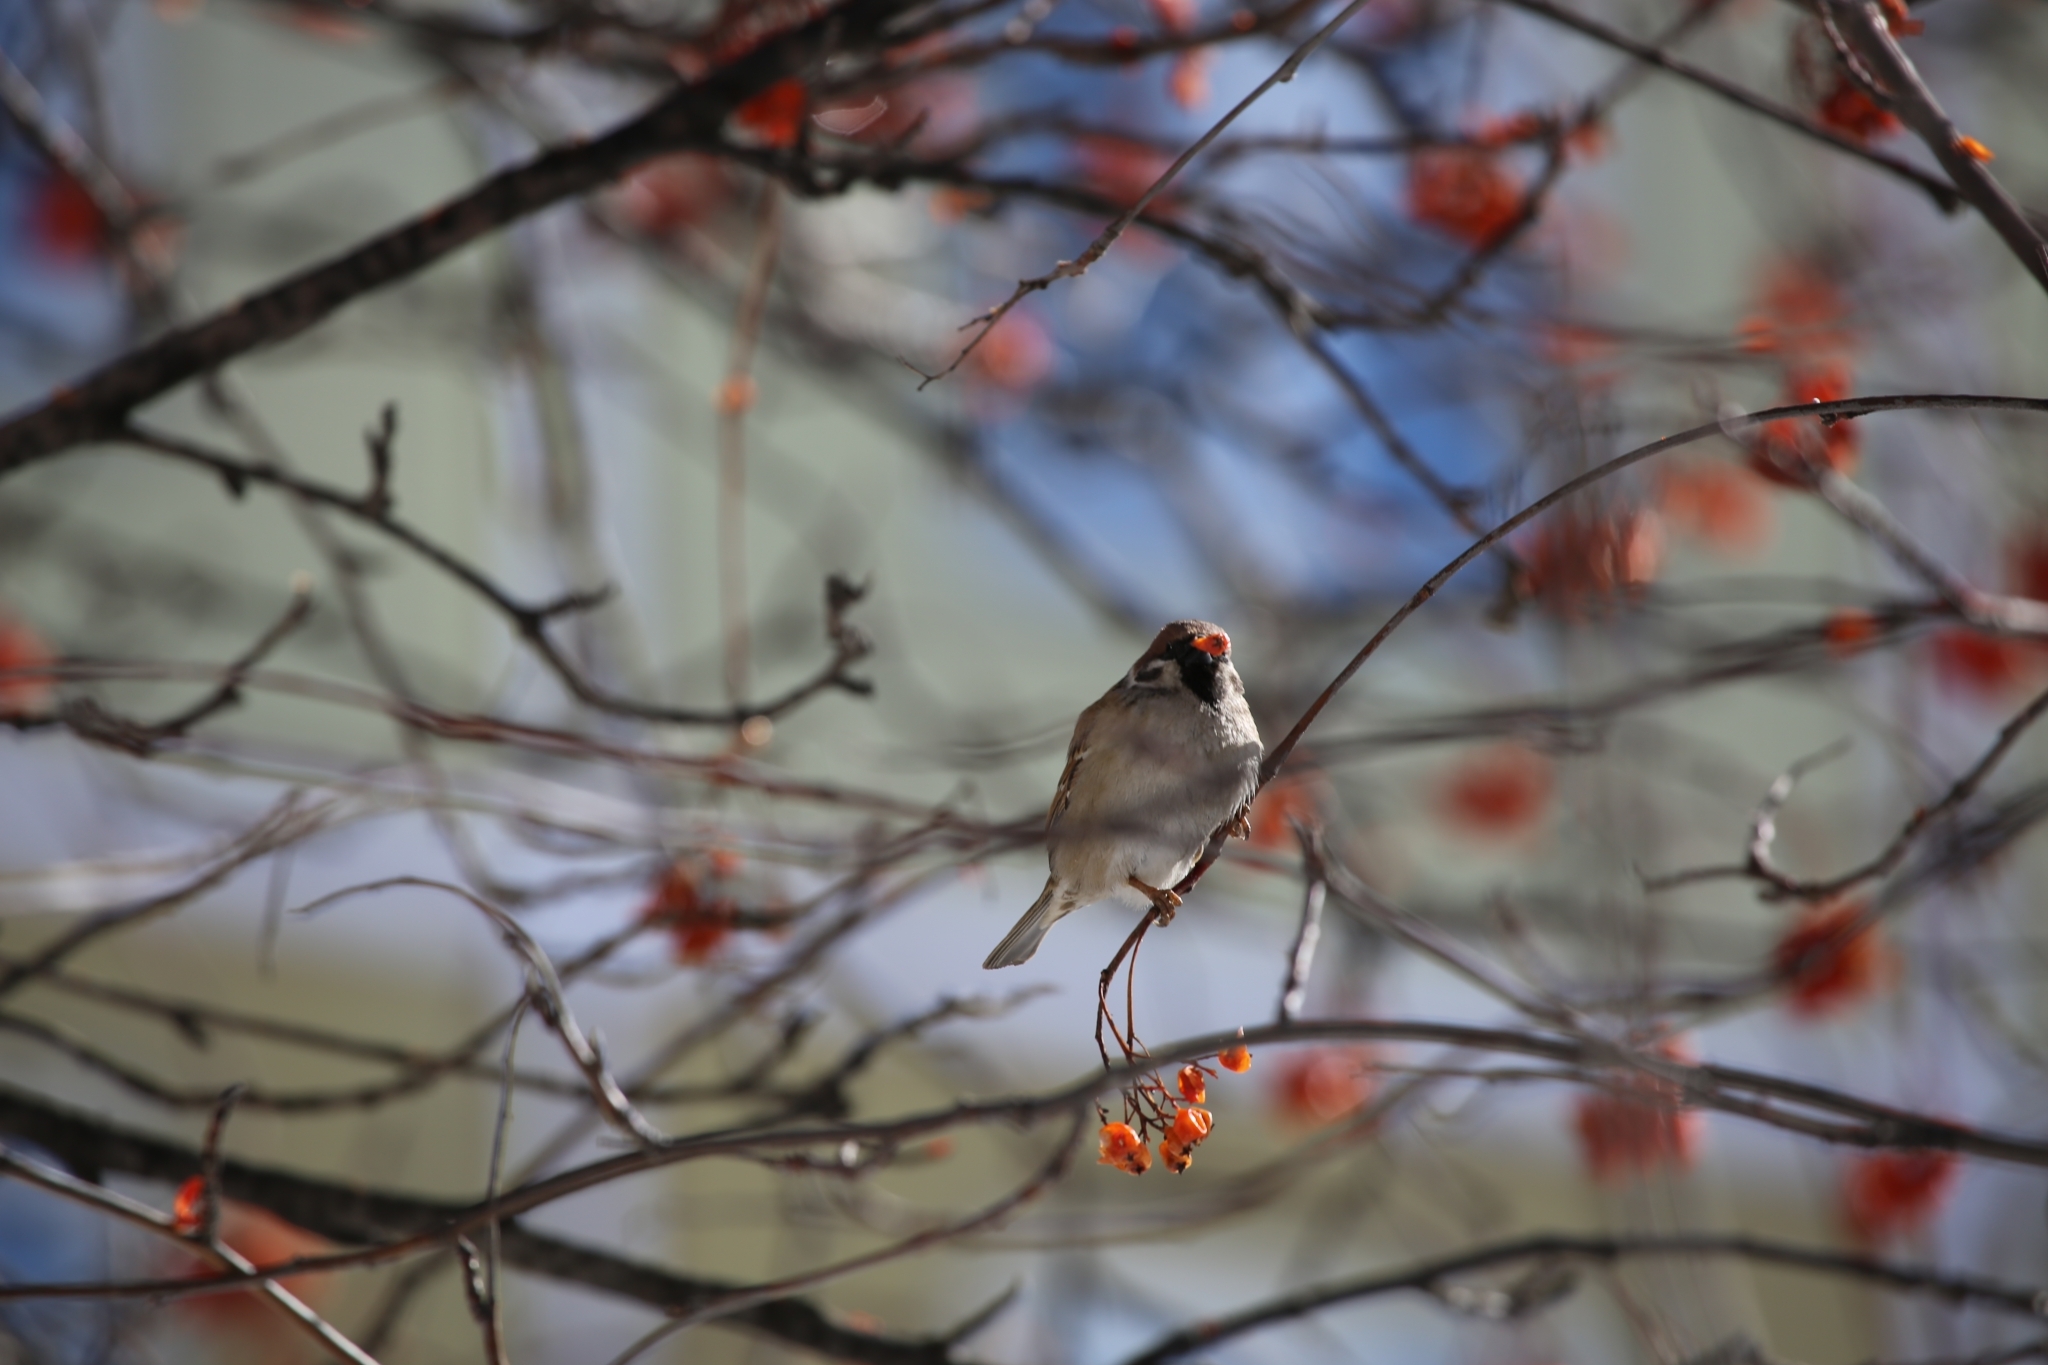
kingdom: Animalia
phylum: Chordata
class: Aves
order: Passeriformes
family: Passeridae
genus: Passer
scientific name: Passer montanus
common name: Eurasian tree sparrow
